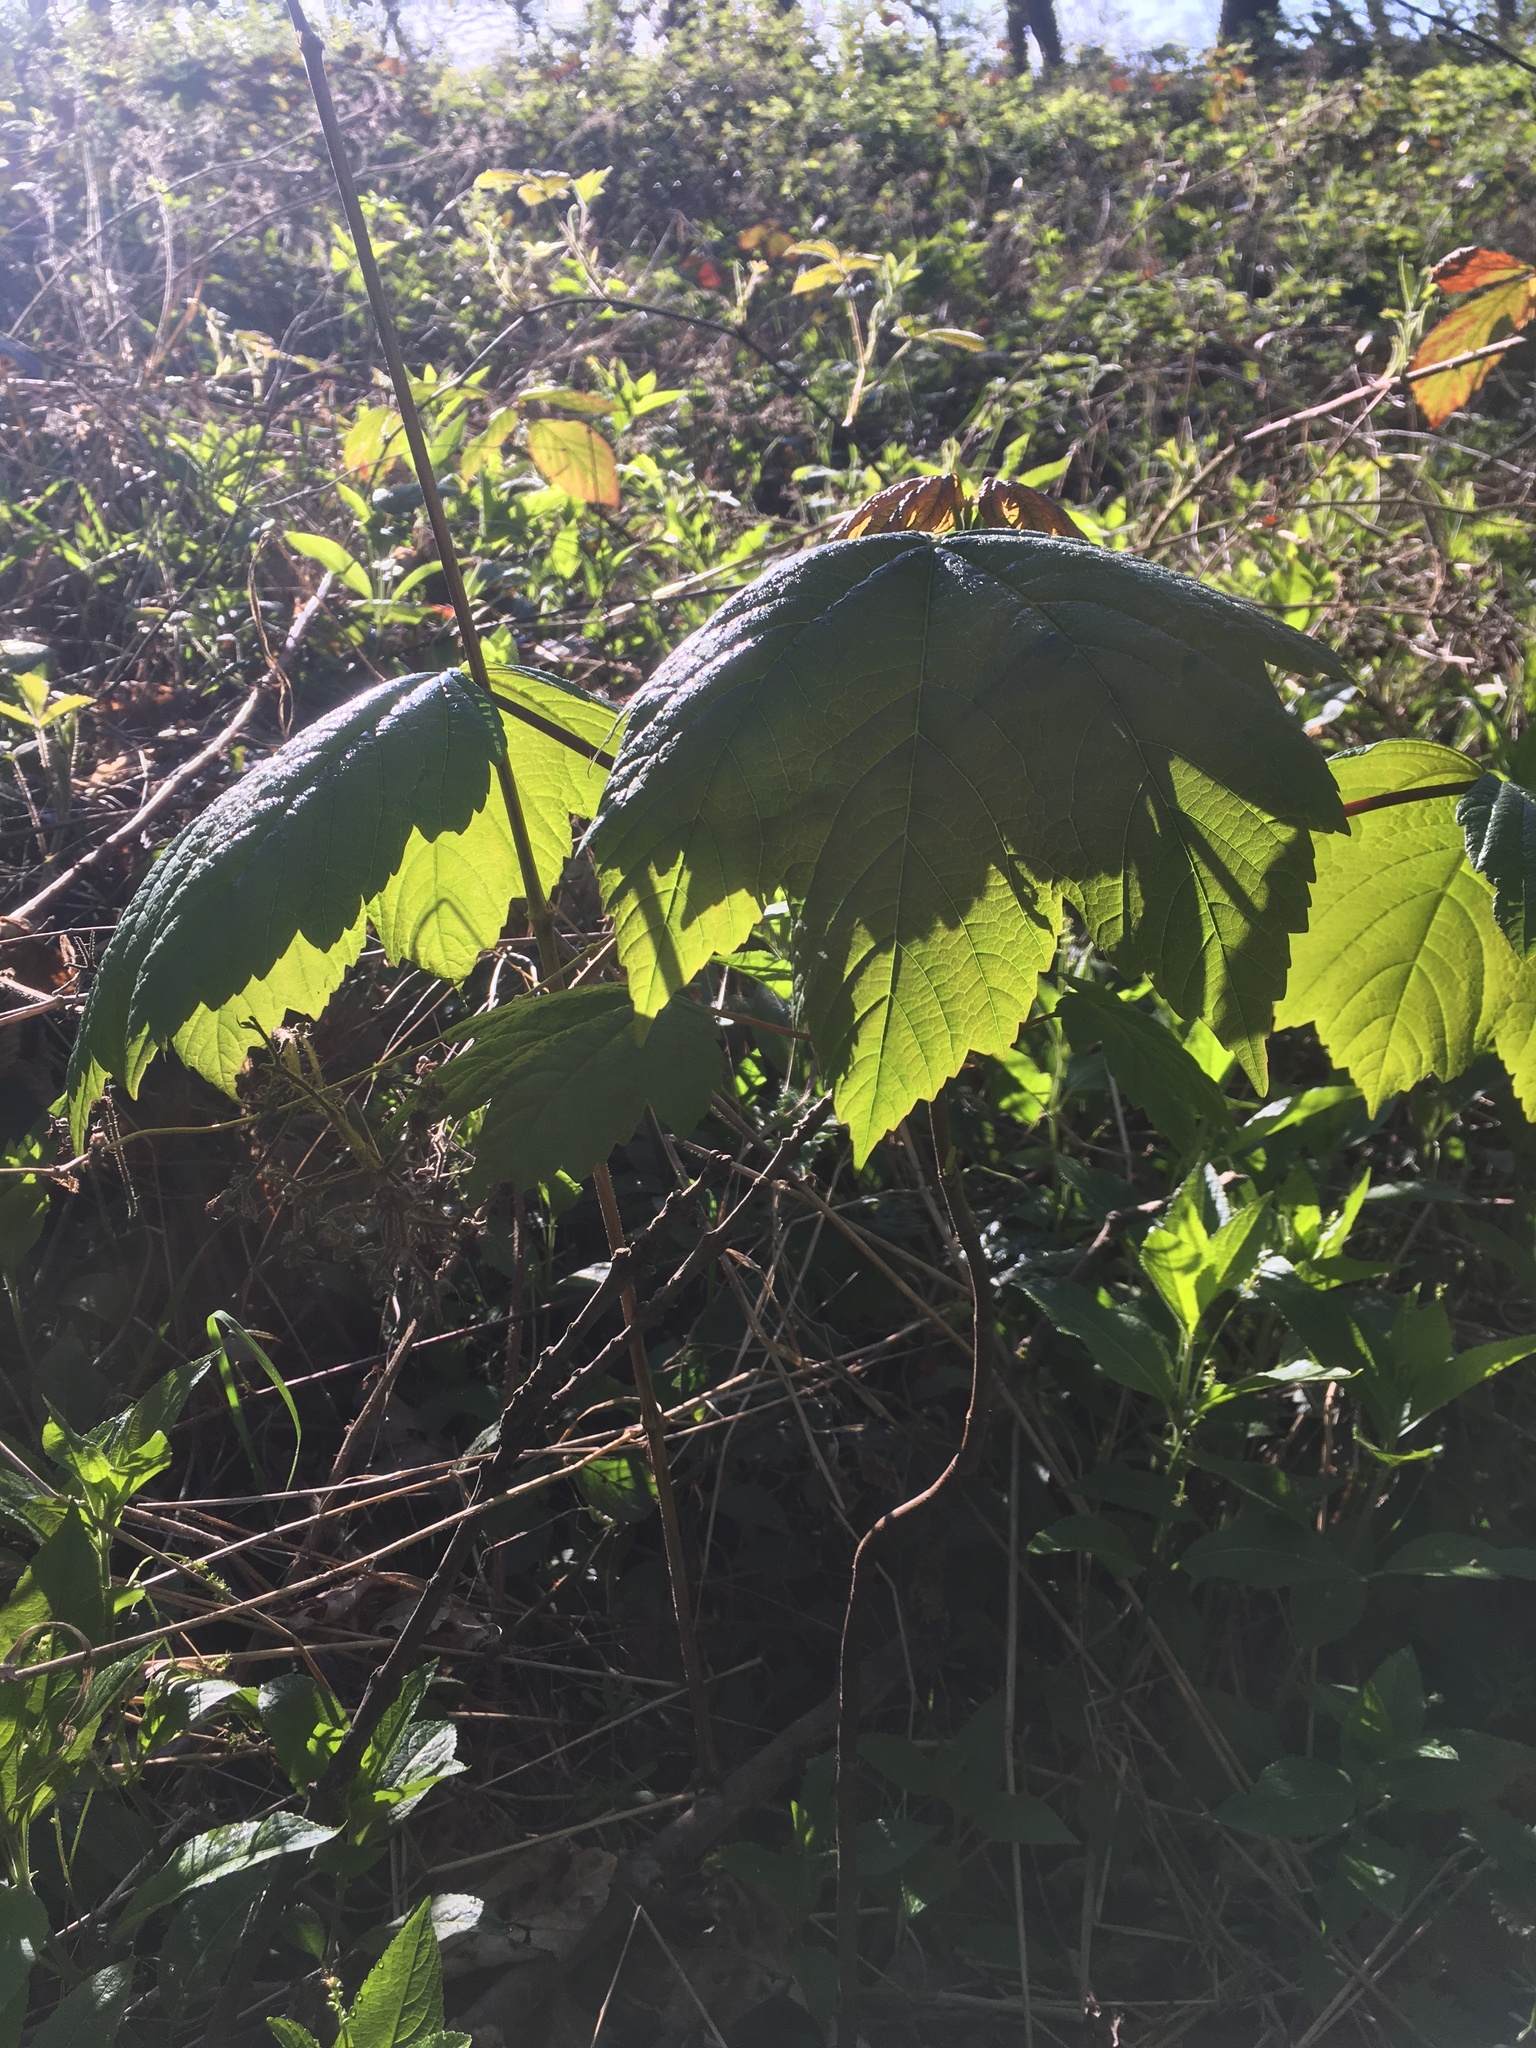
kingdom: Plantae
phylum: Tracheophyta
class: Magnoliopsida
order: Sapindales
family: Sapindaceae
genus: Acer
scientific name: Acer pseudoplatanus
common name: Sycamore
